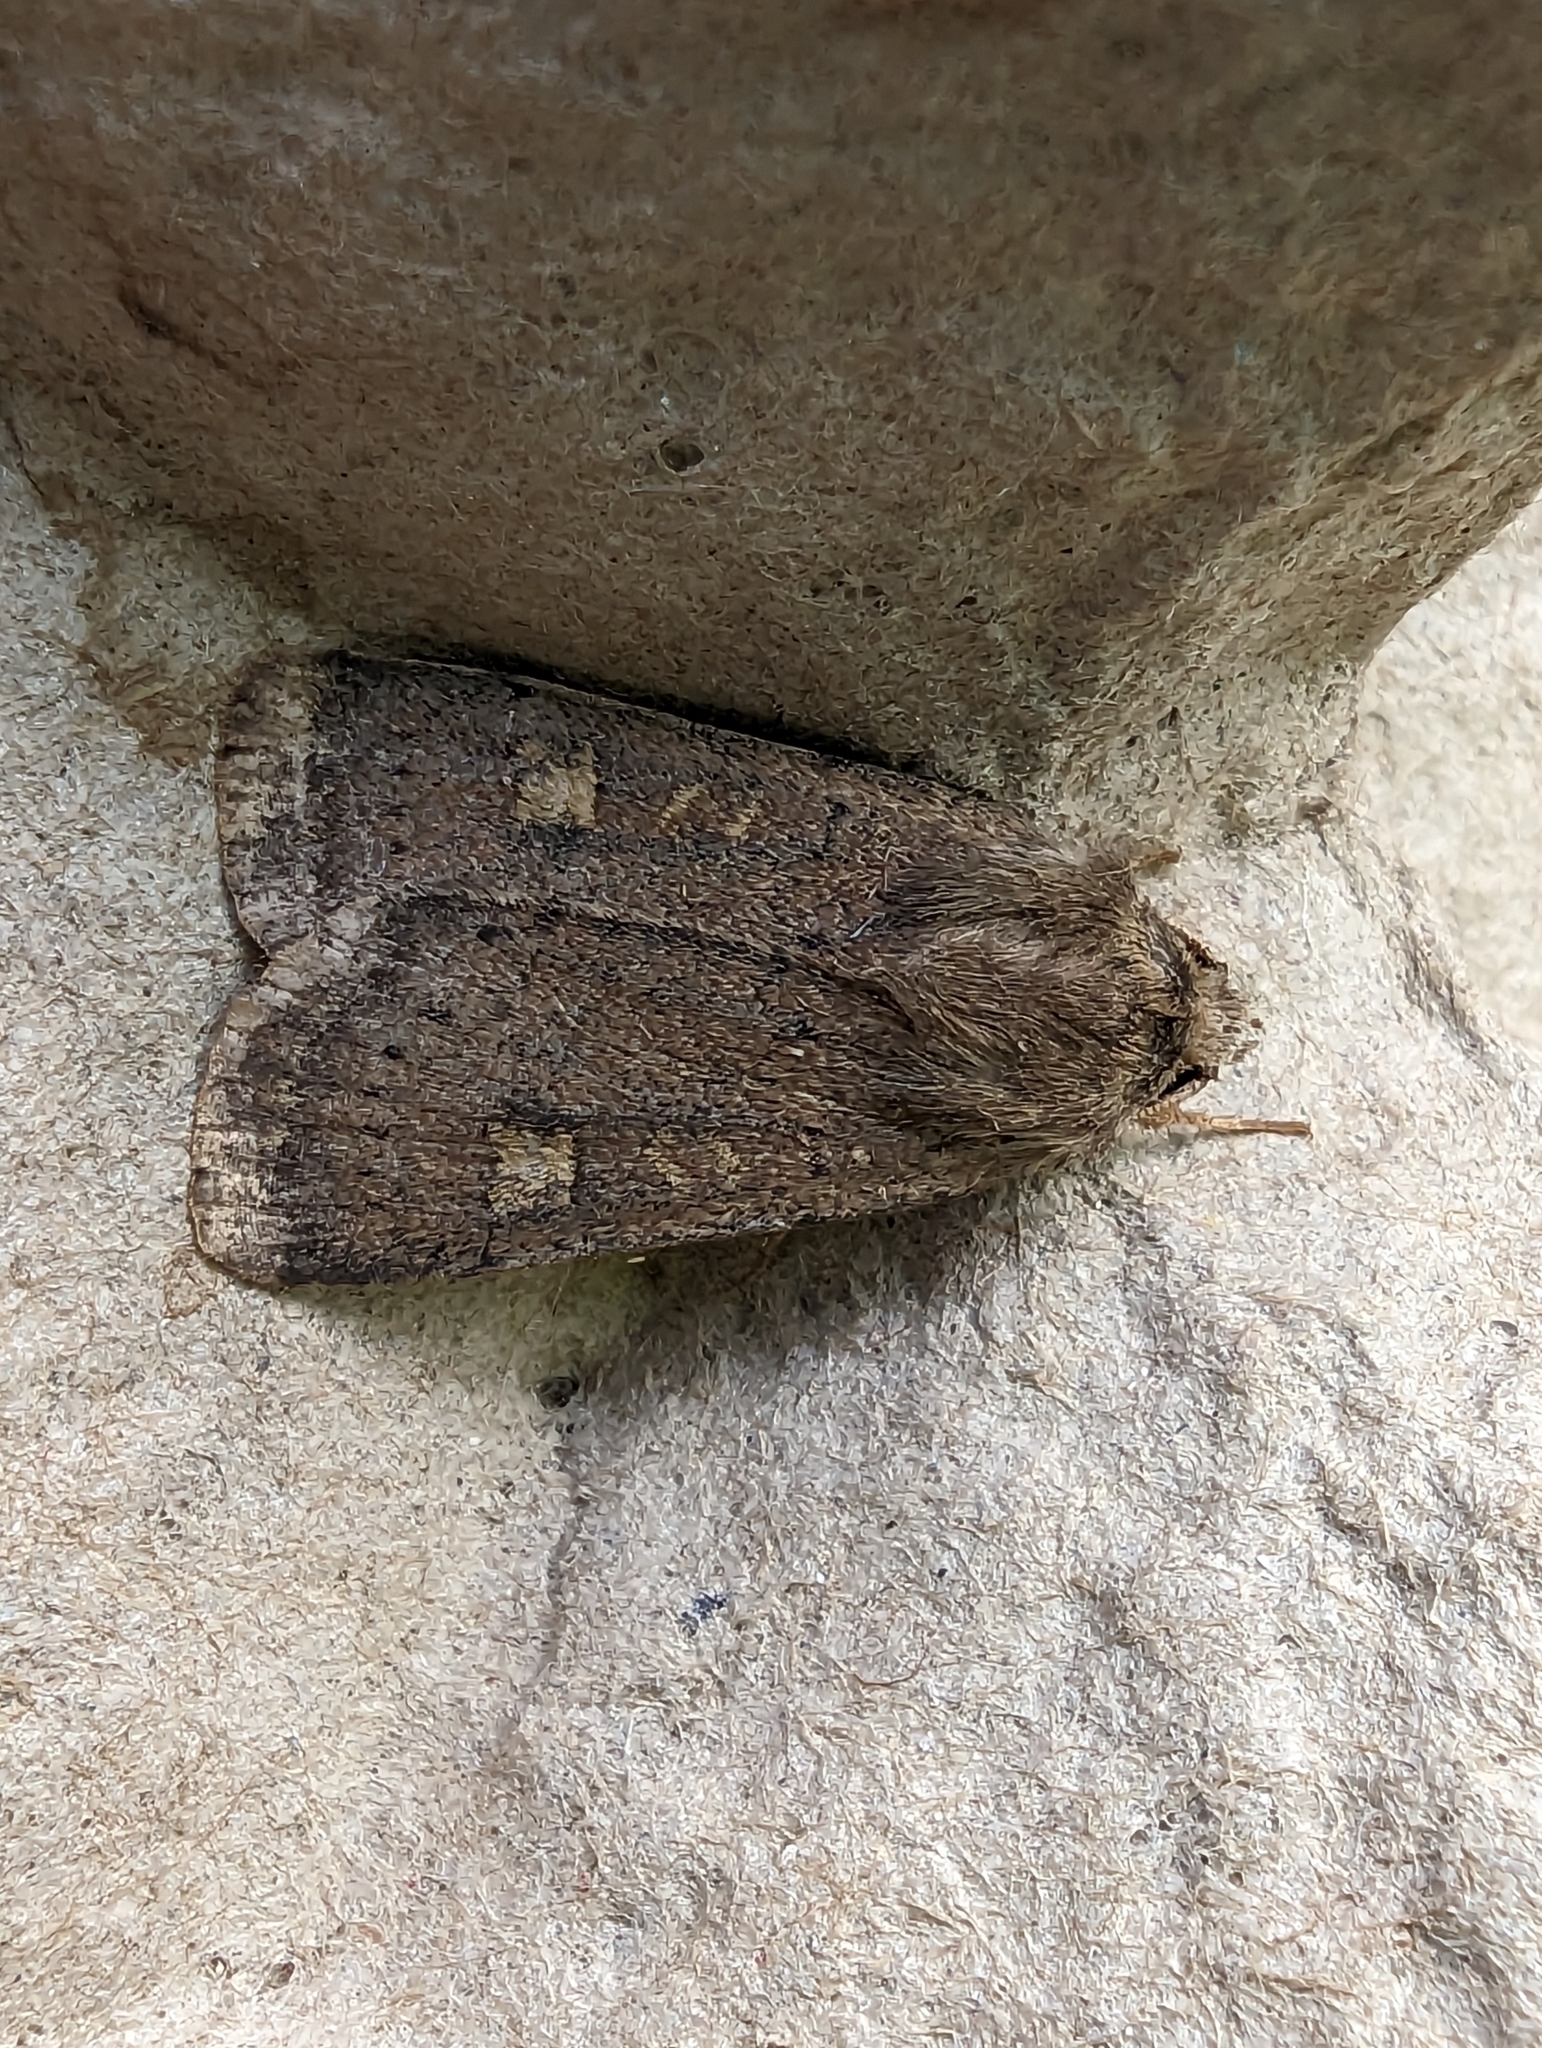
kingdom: Animalia
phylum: Arthropoda
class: Insecta
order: Lepidoptera
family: Noctuidae
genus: Xestia
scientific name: Xestia xanthographa
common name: Square-spot rustic
